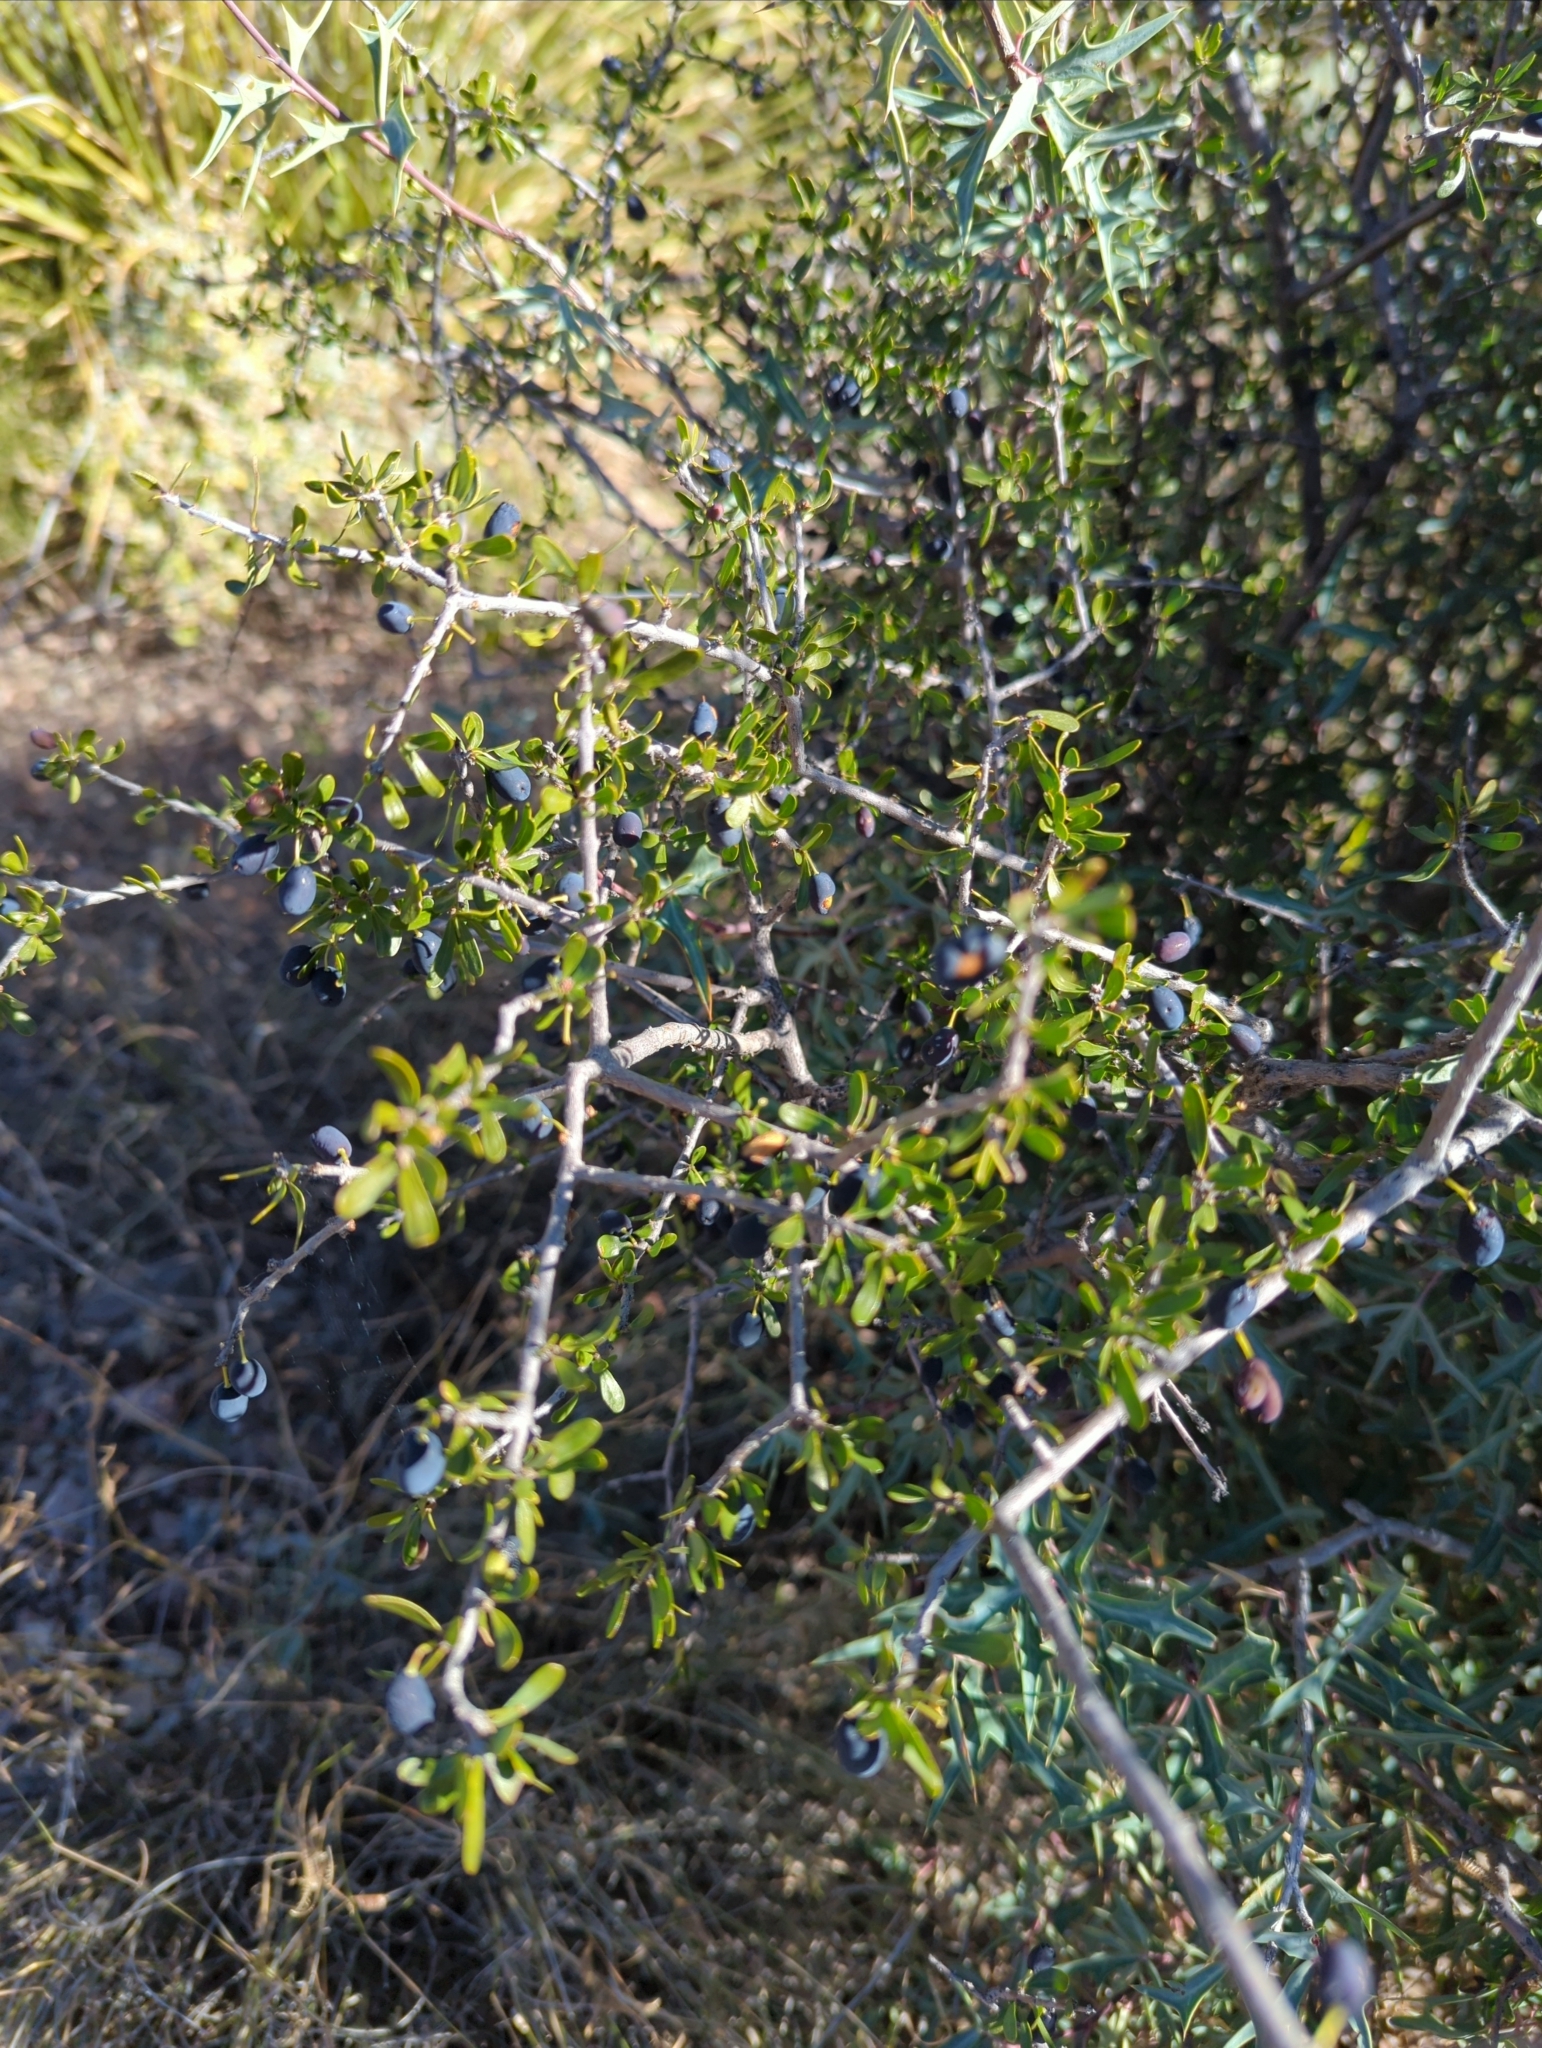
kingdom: Plantae
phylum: Tracheophyta
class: Magnoliopsida
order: Lamiales
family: Oleaceae
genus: Forestiera
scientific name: Forestiera angustifolia
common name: Elbowbush
